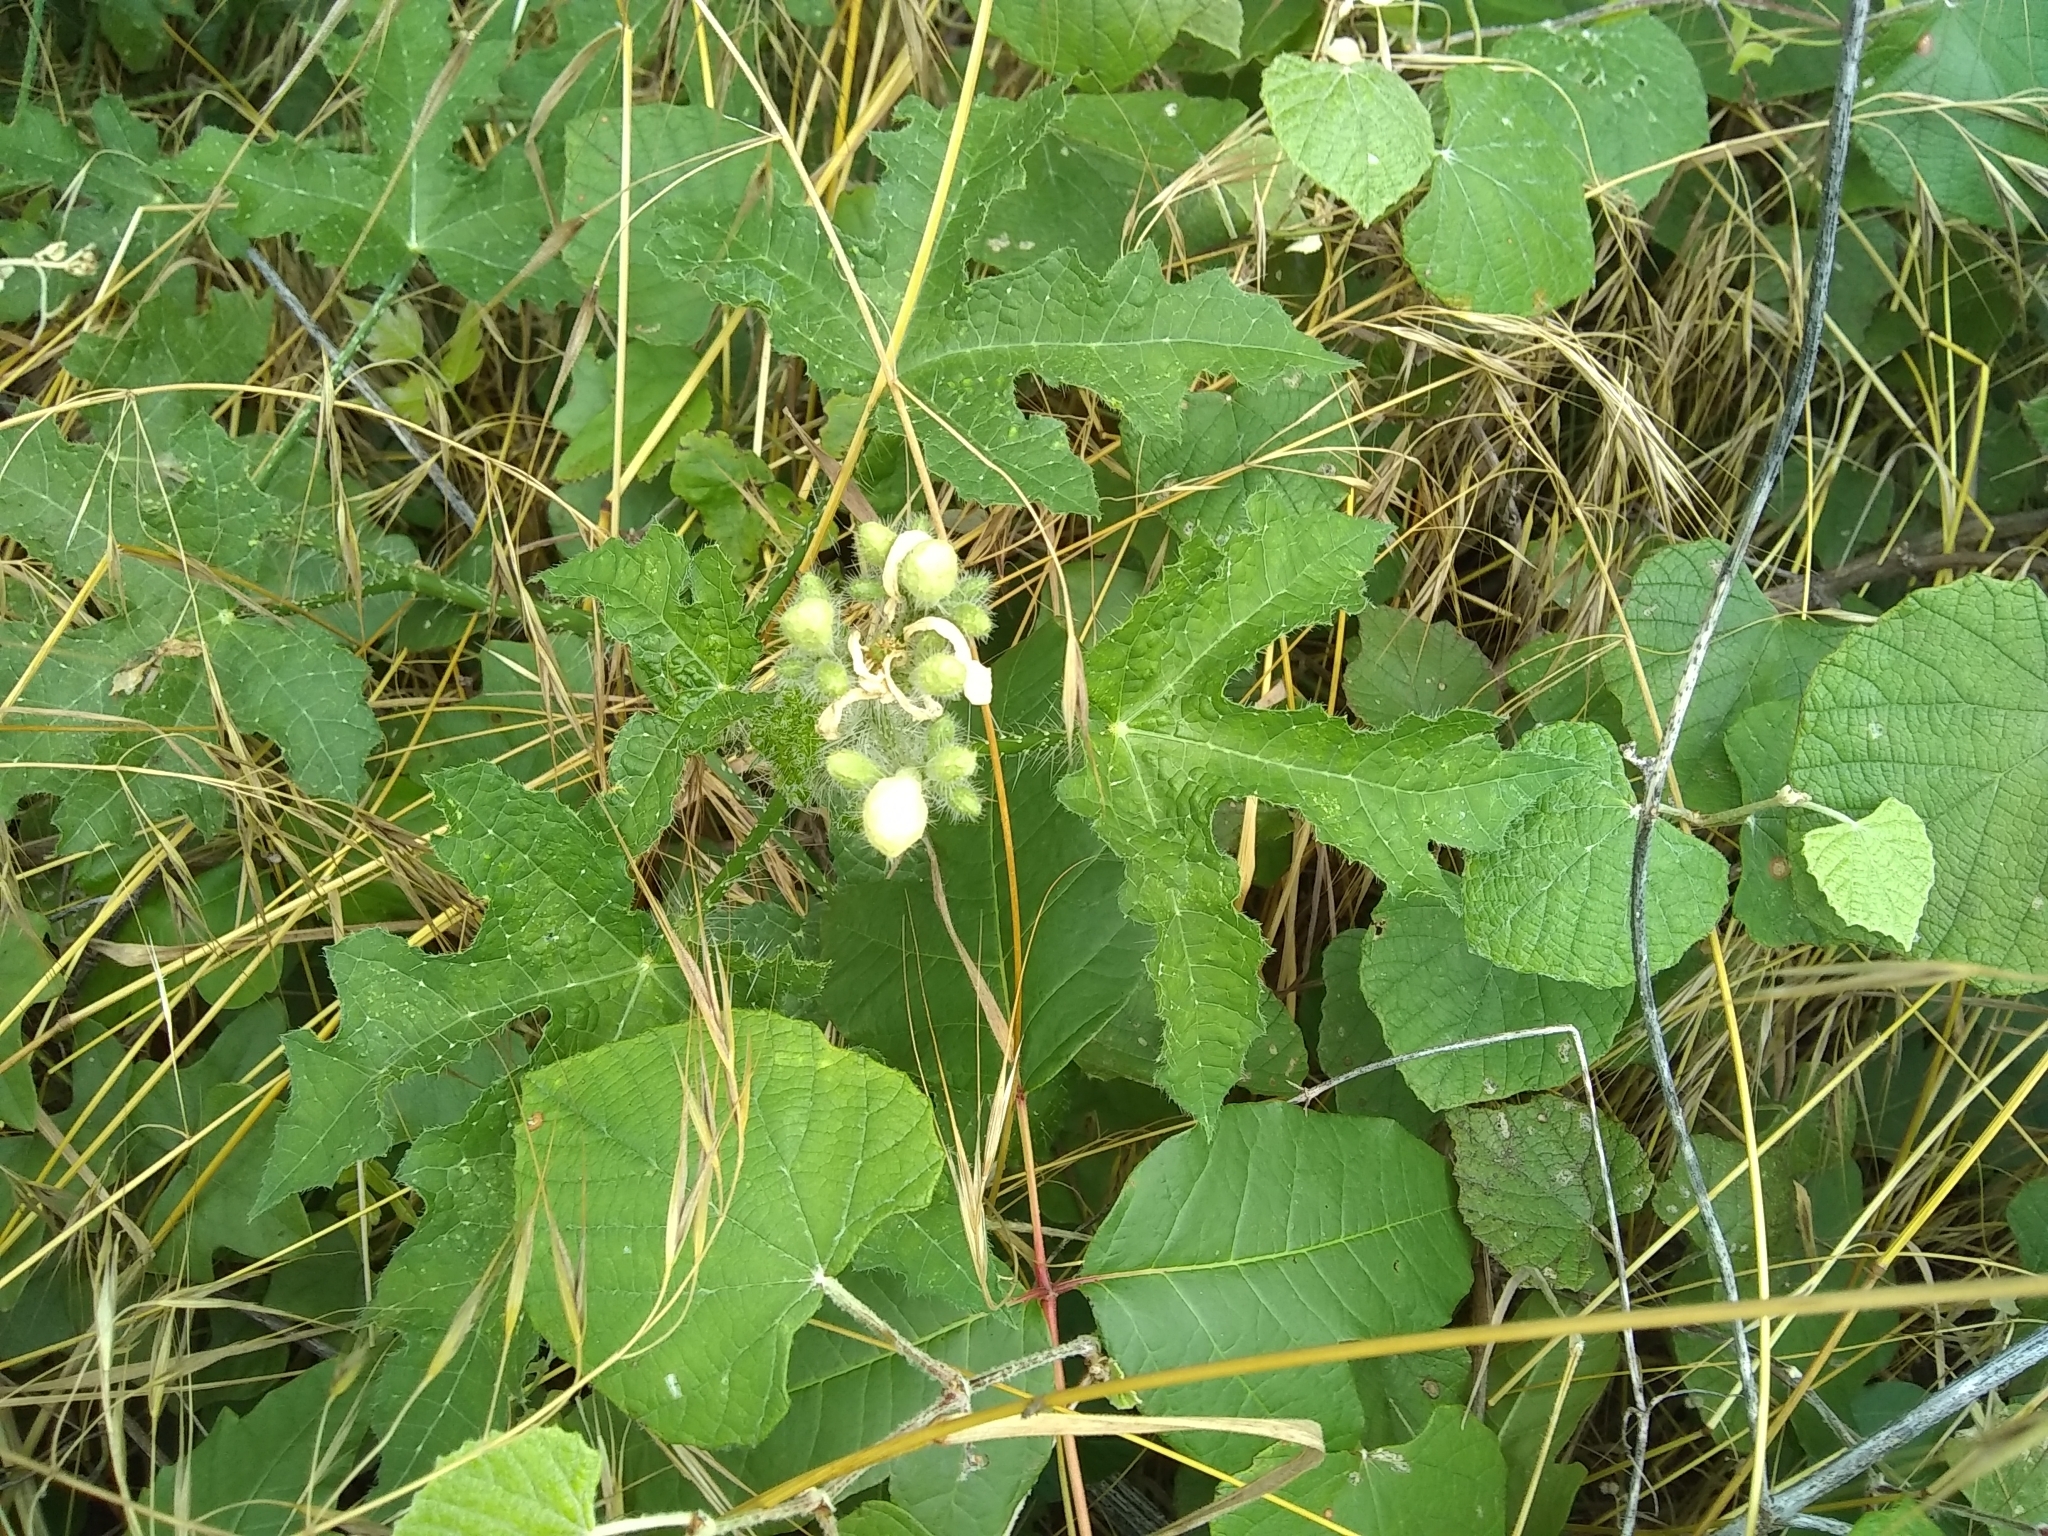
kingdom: Plantae
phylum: Tracheophyta
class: Magnoliopsida
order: Malpighiales
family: Euphorbiaceae
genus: Cnidoscolus
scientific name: Cnidoscolus texanus
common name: Texas bull-nettle
